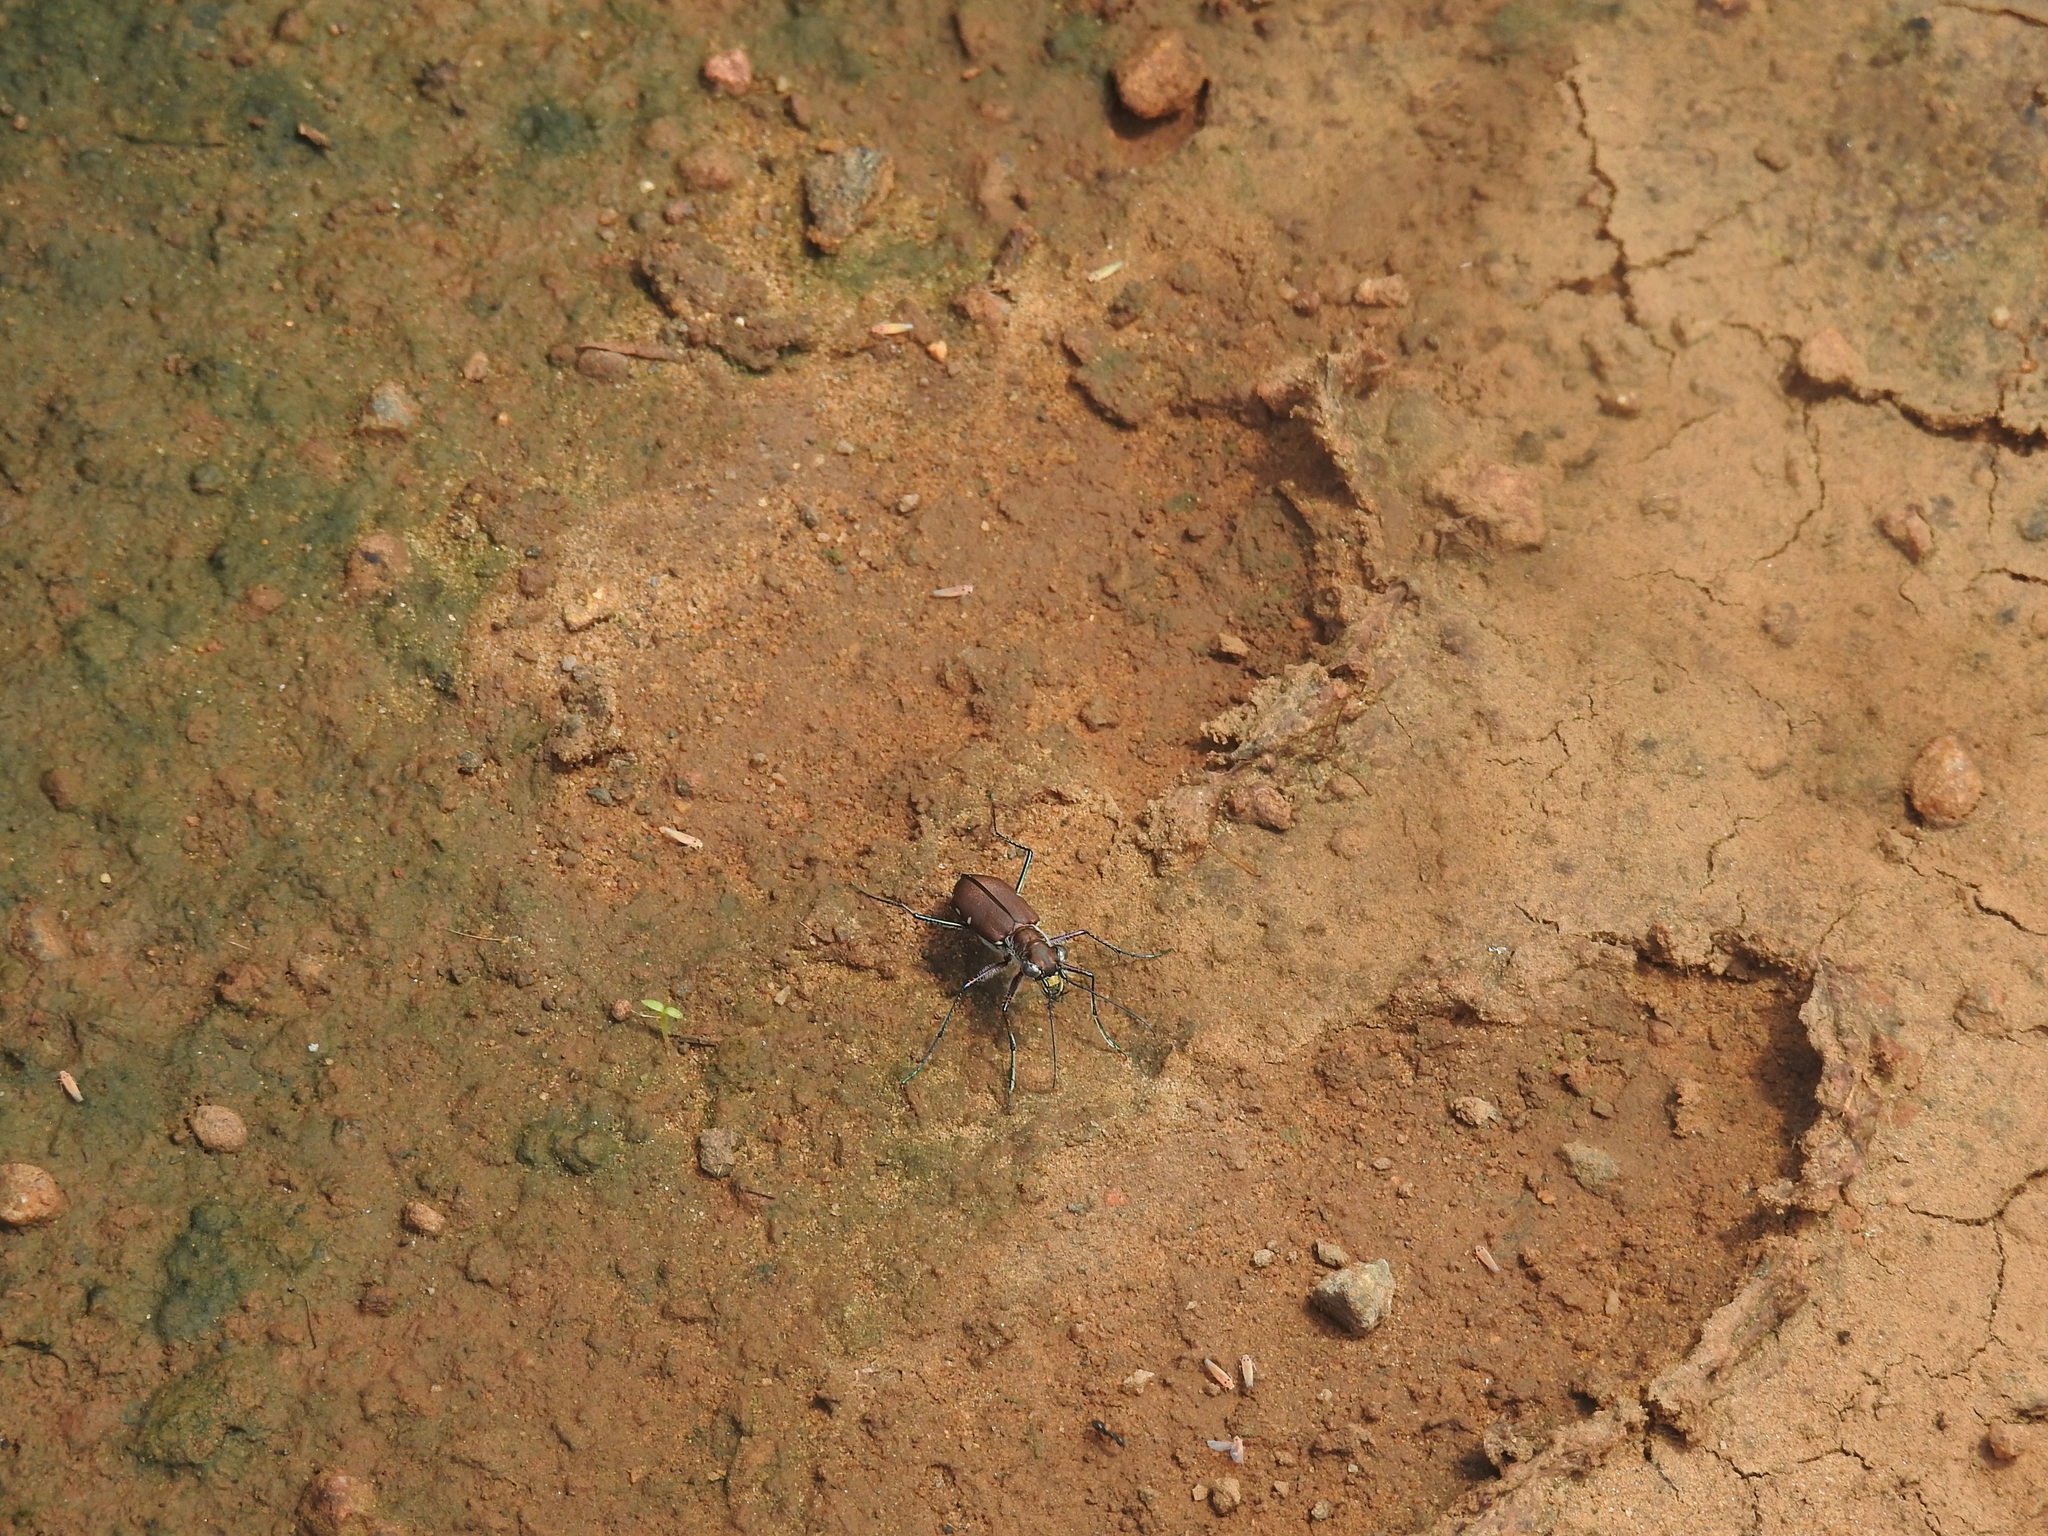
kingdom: Animalia
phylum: Arthropoda
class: Insecta
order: Coleoptera
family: Carabidae
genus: Cicindela
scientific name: Cicindela funerea
